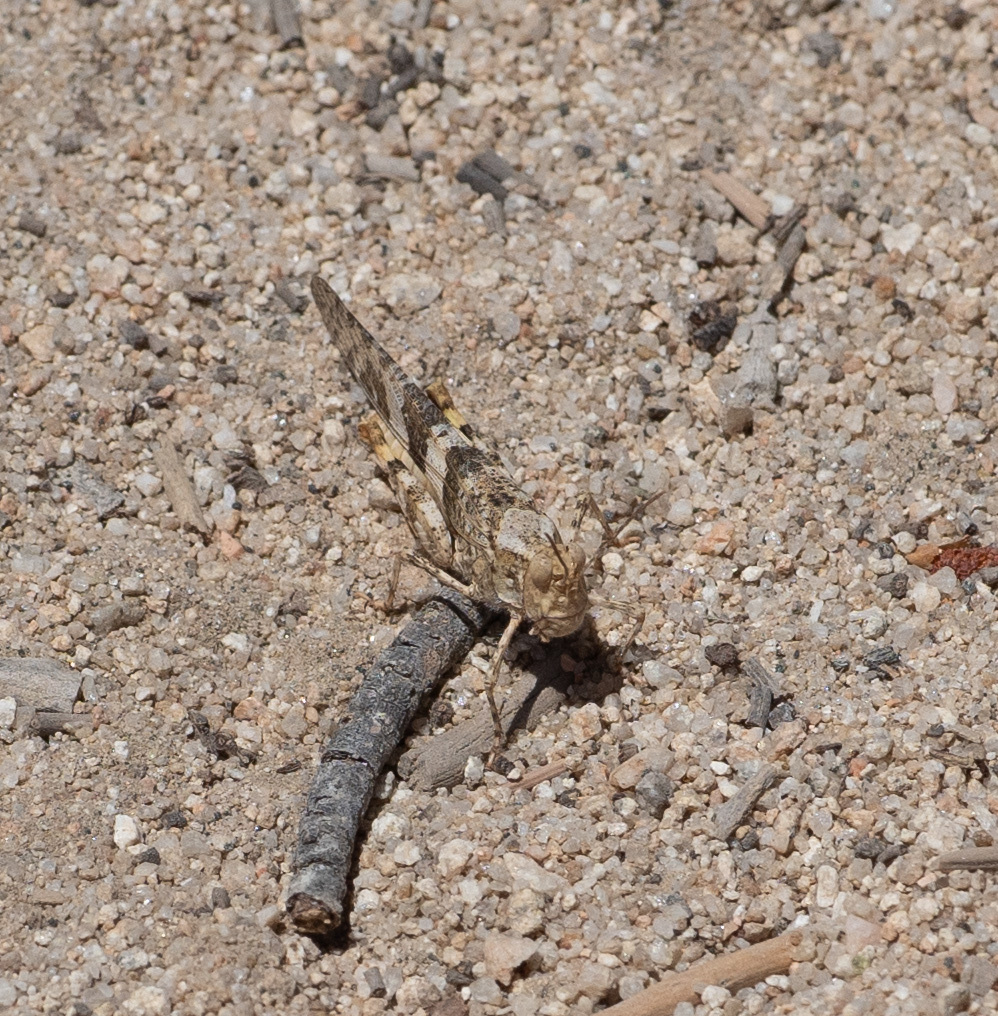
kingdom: Animalia
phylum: Arthropoda
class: Insecta
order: Orthoptera
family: Acrididae
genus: Trimerotropis
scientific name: Trimerotropis pallidipennis
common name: Pallid-winged grasshopper
